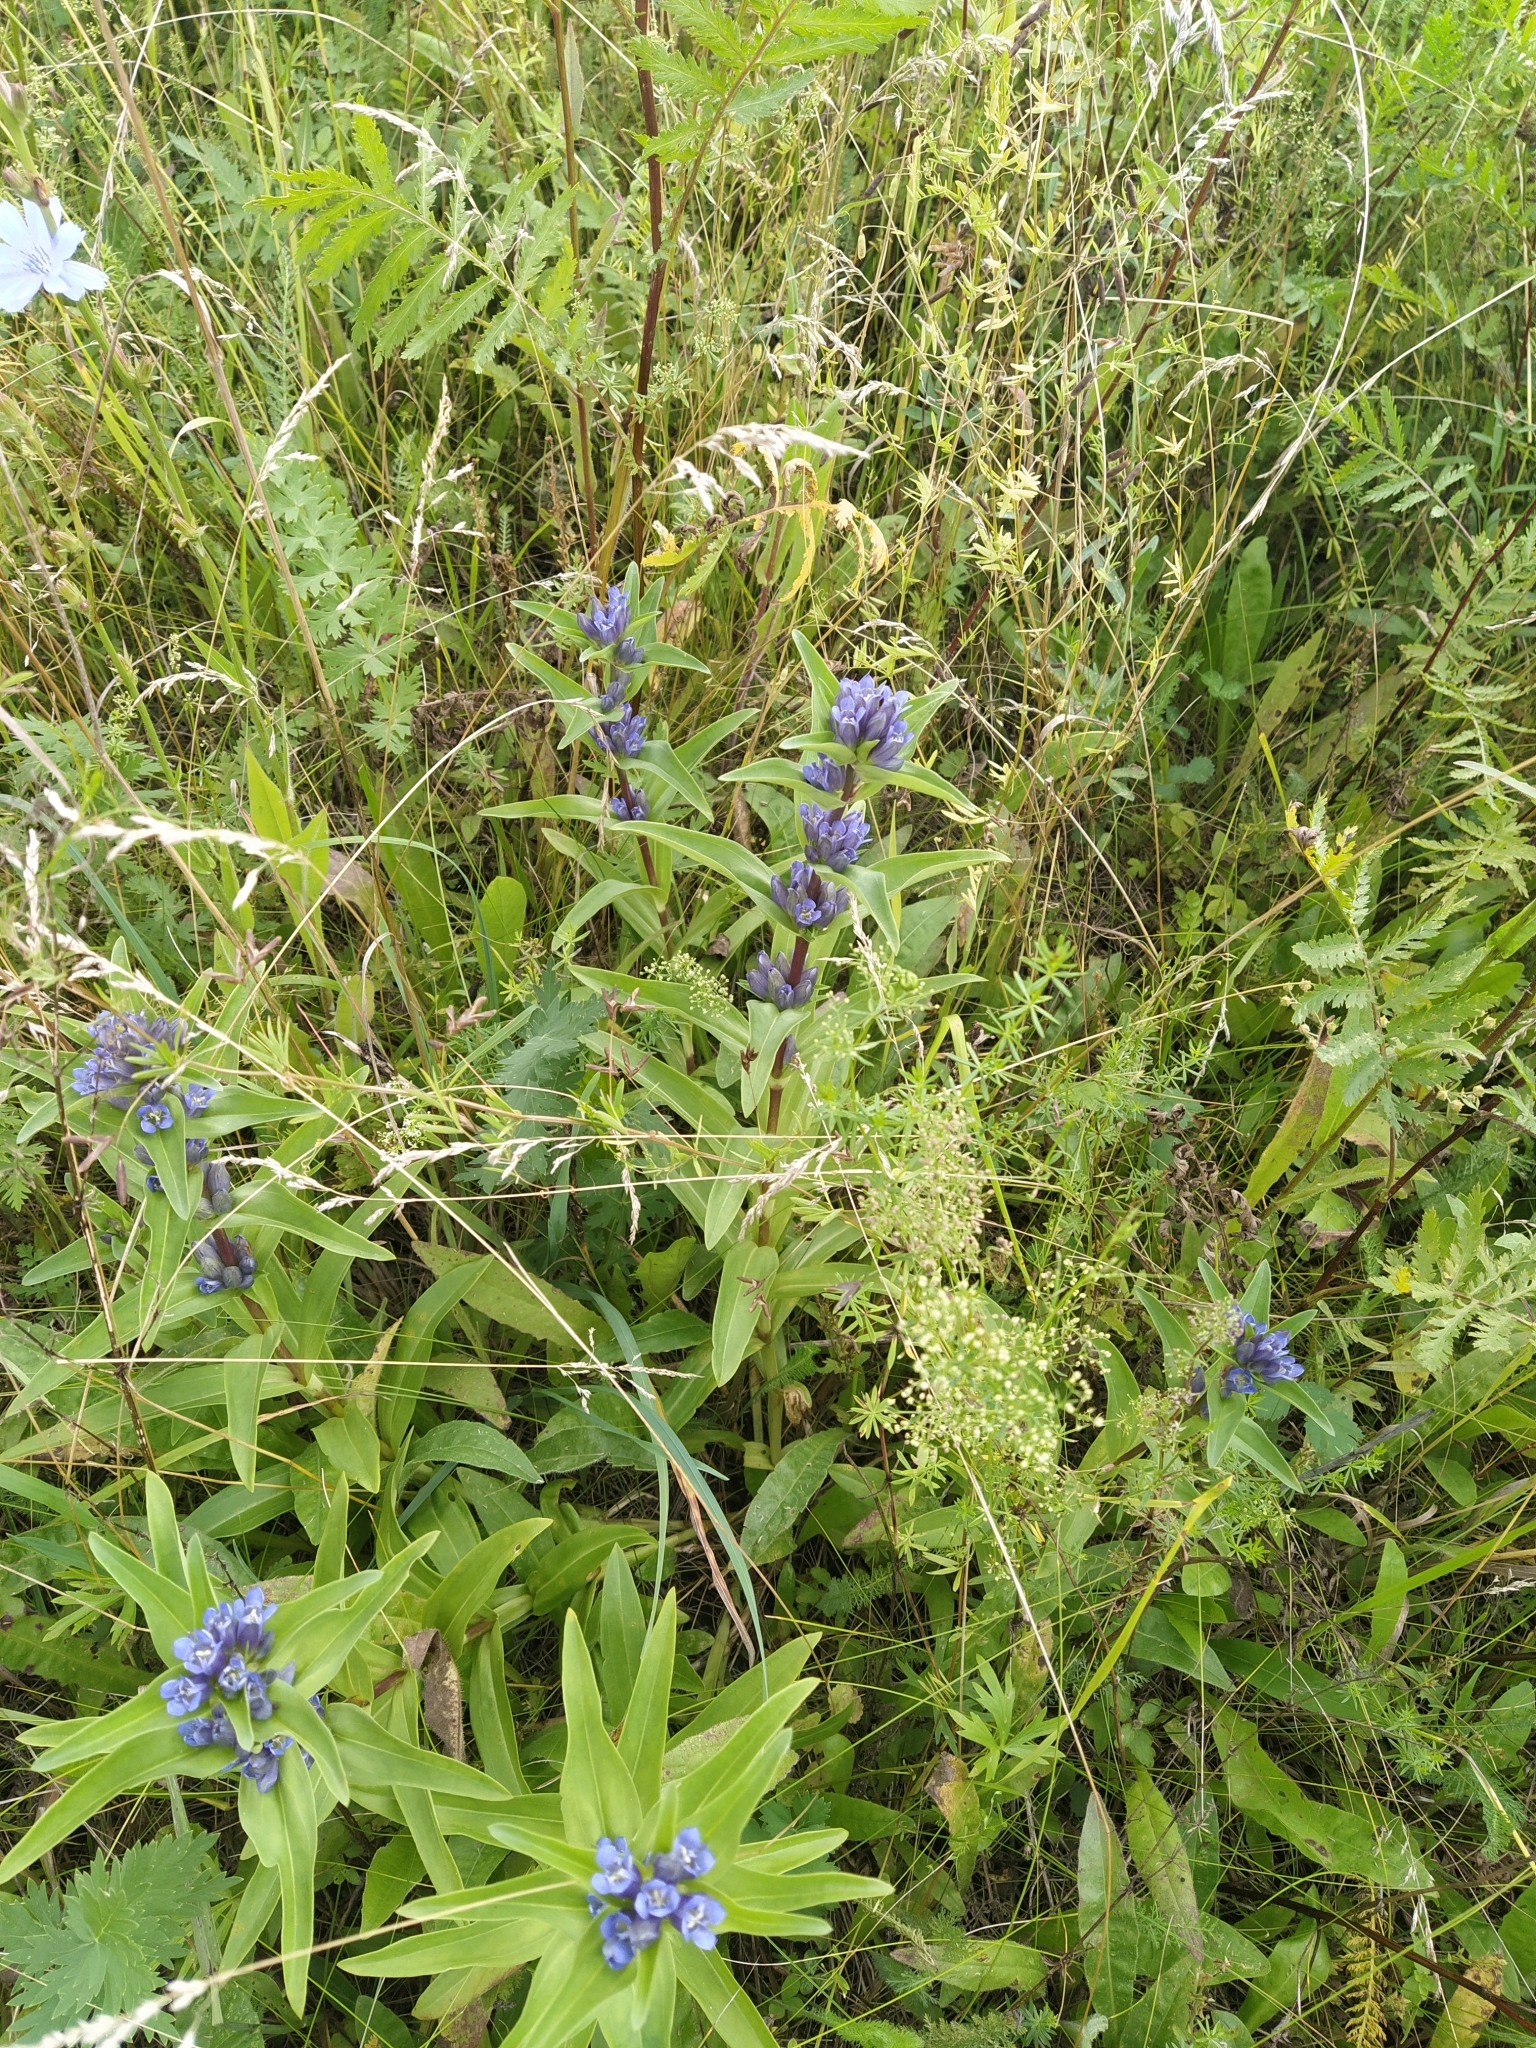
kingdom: Plantae
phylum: Tracheophyta
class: Magnoliopsida
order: Gentianales
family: Gentianaceae
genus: Gentiana
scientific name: Gentiana cruciata
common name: Cross gentian
